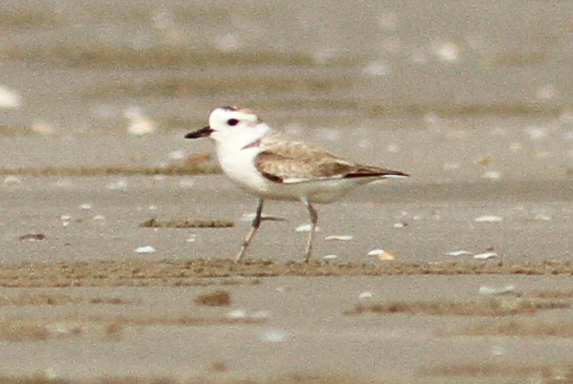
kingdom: Animalia
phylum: Chordata
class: Aves
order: Charadriiformes
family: Charadriidae
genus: Anarhynchus
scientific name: Anarhynchus
